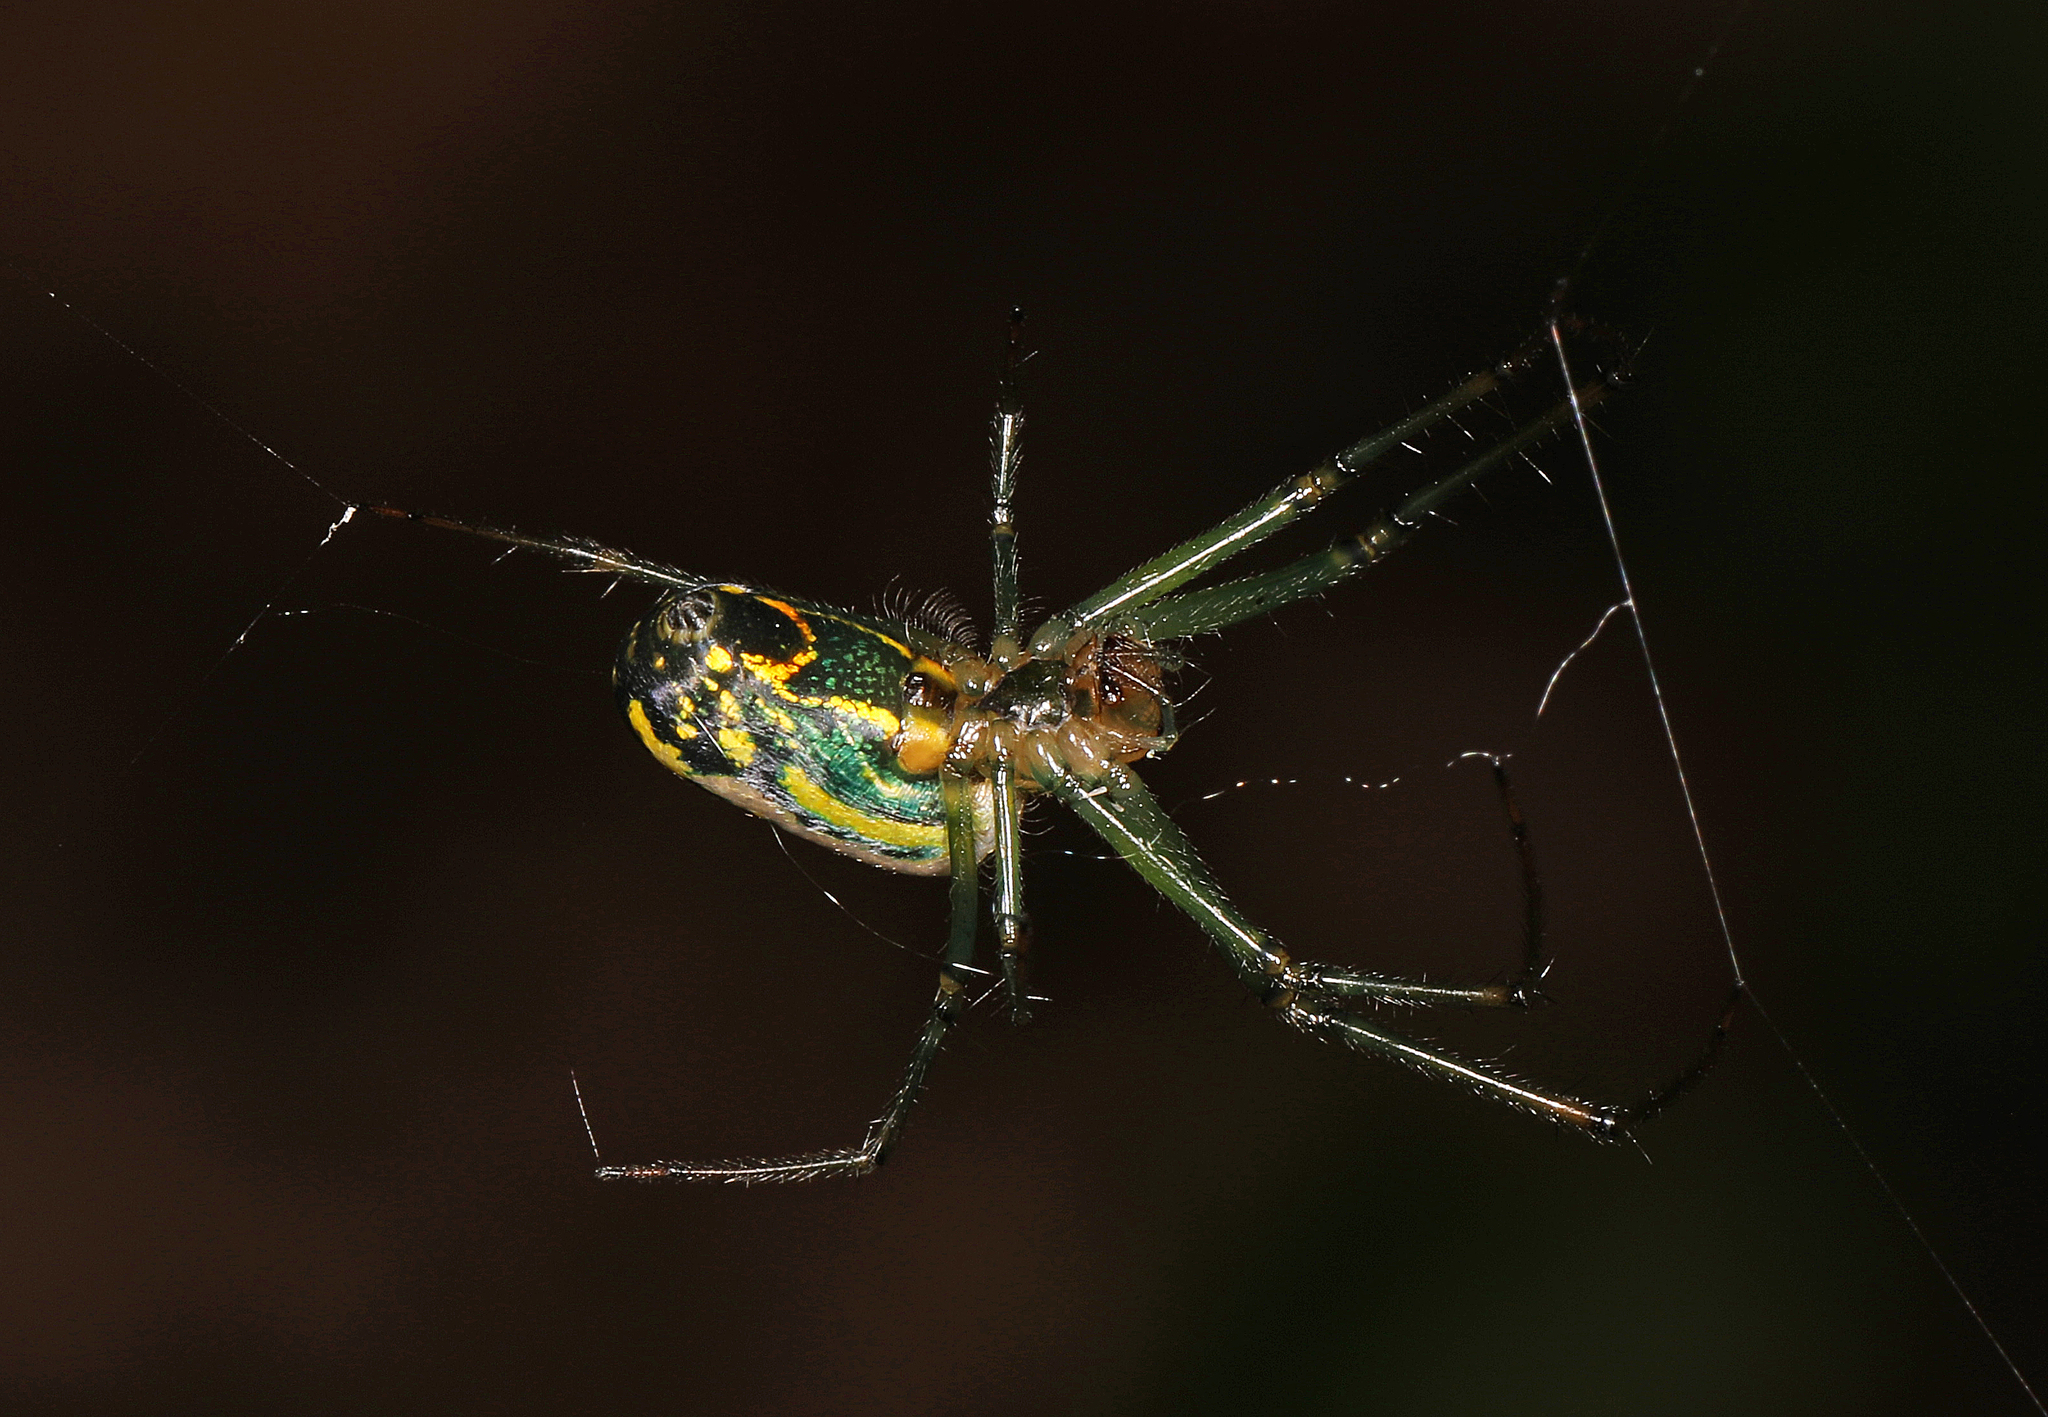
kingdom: Animalia
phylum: Arthropoda
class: Arachnida
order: Araneae
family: Tetragnathidae
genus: Leucauge
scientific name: Leucauge venusta
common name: Longjawed orb weavers
